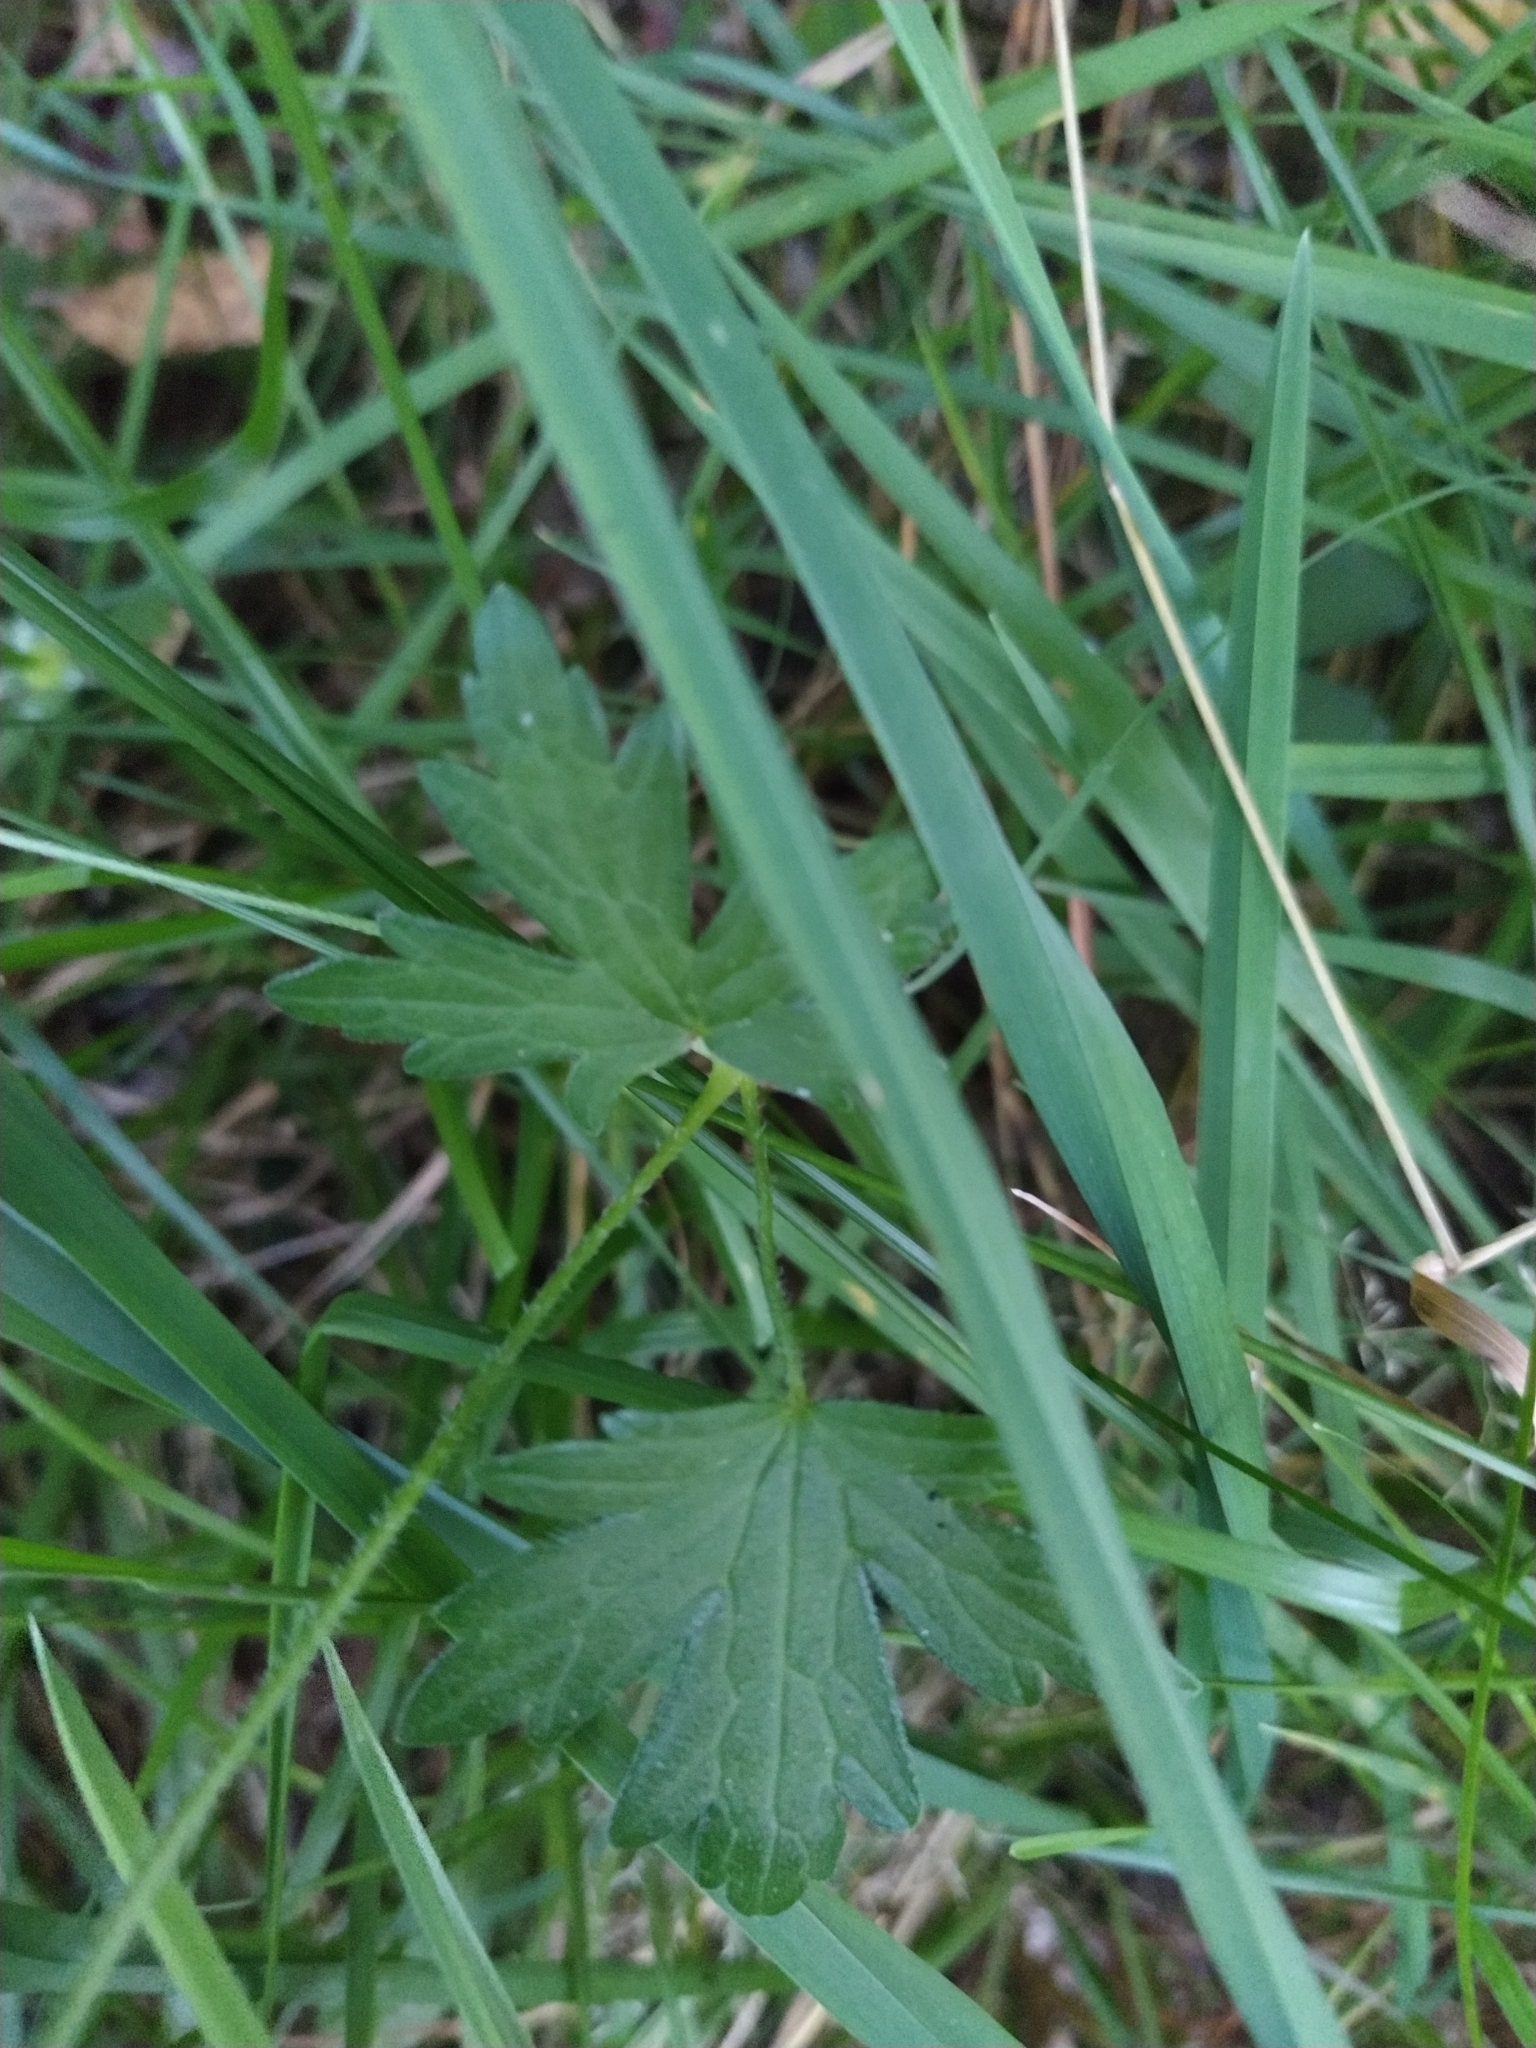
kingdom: Plantae
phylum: Tracheophyta
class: Magnoliopsida
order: Geraniales
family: Geraniaceae
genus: Geranium
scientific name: Geranium palustre
